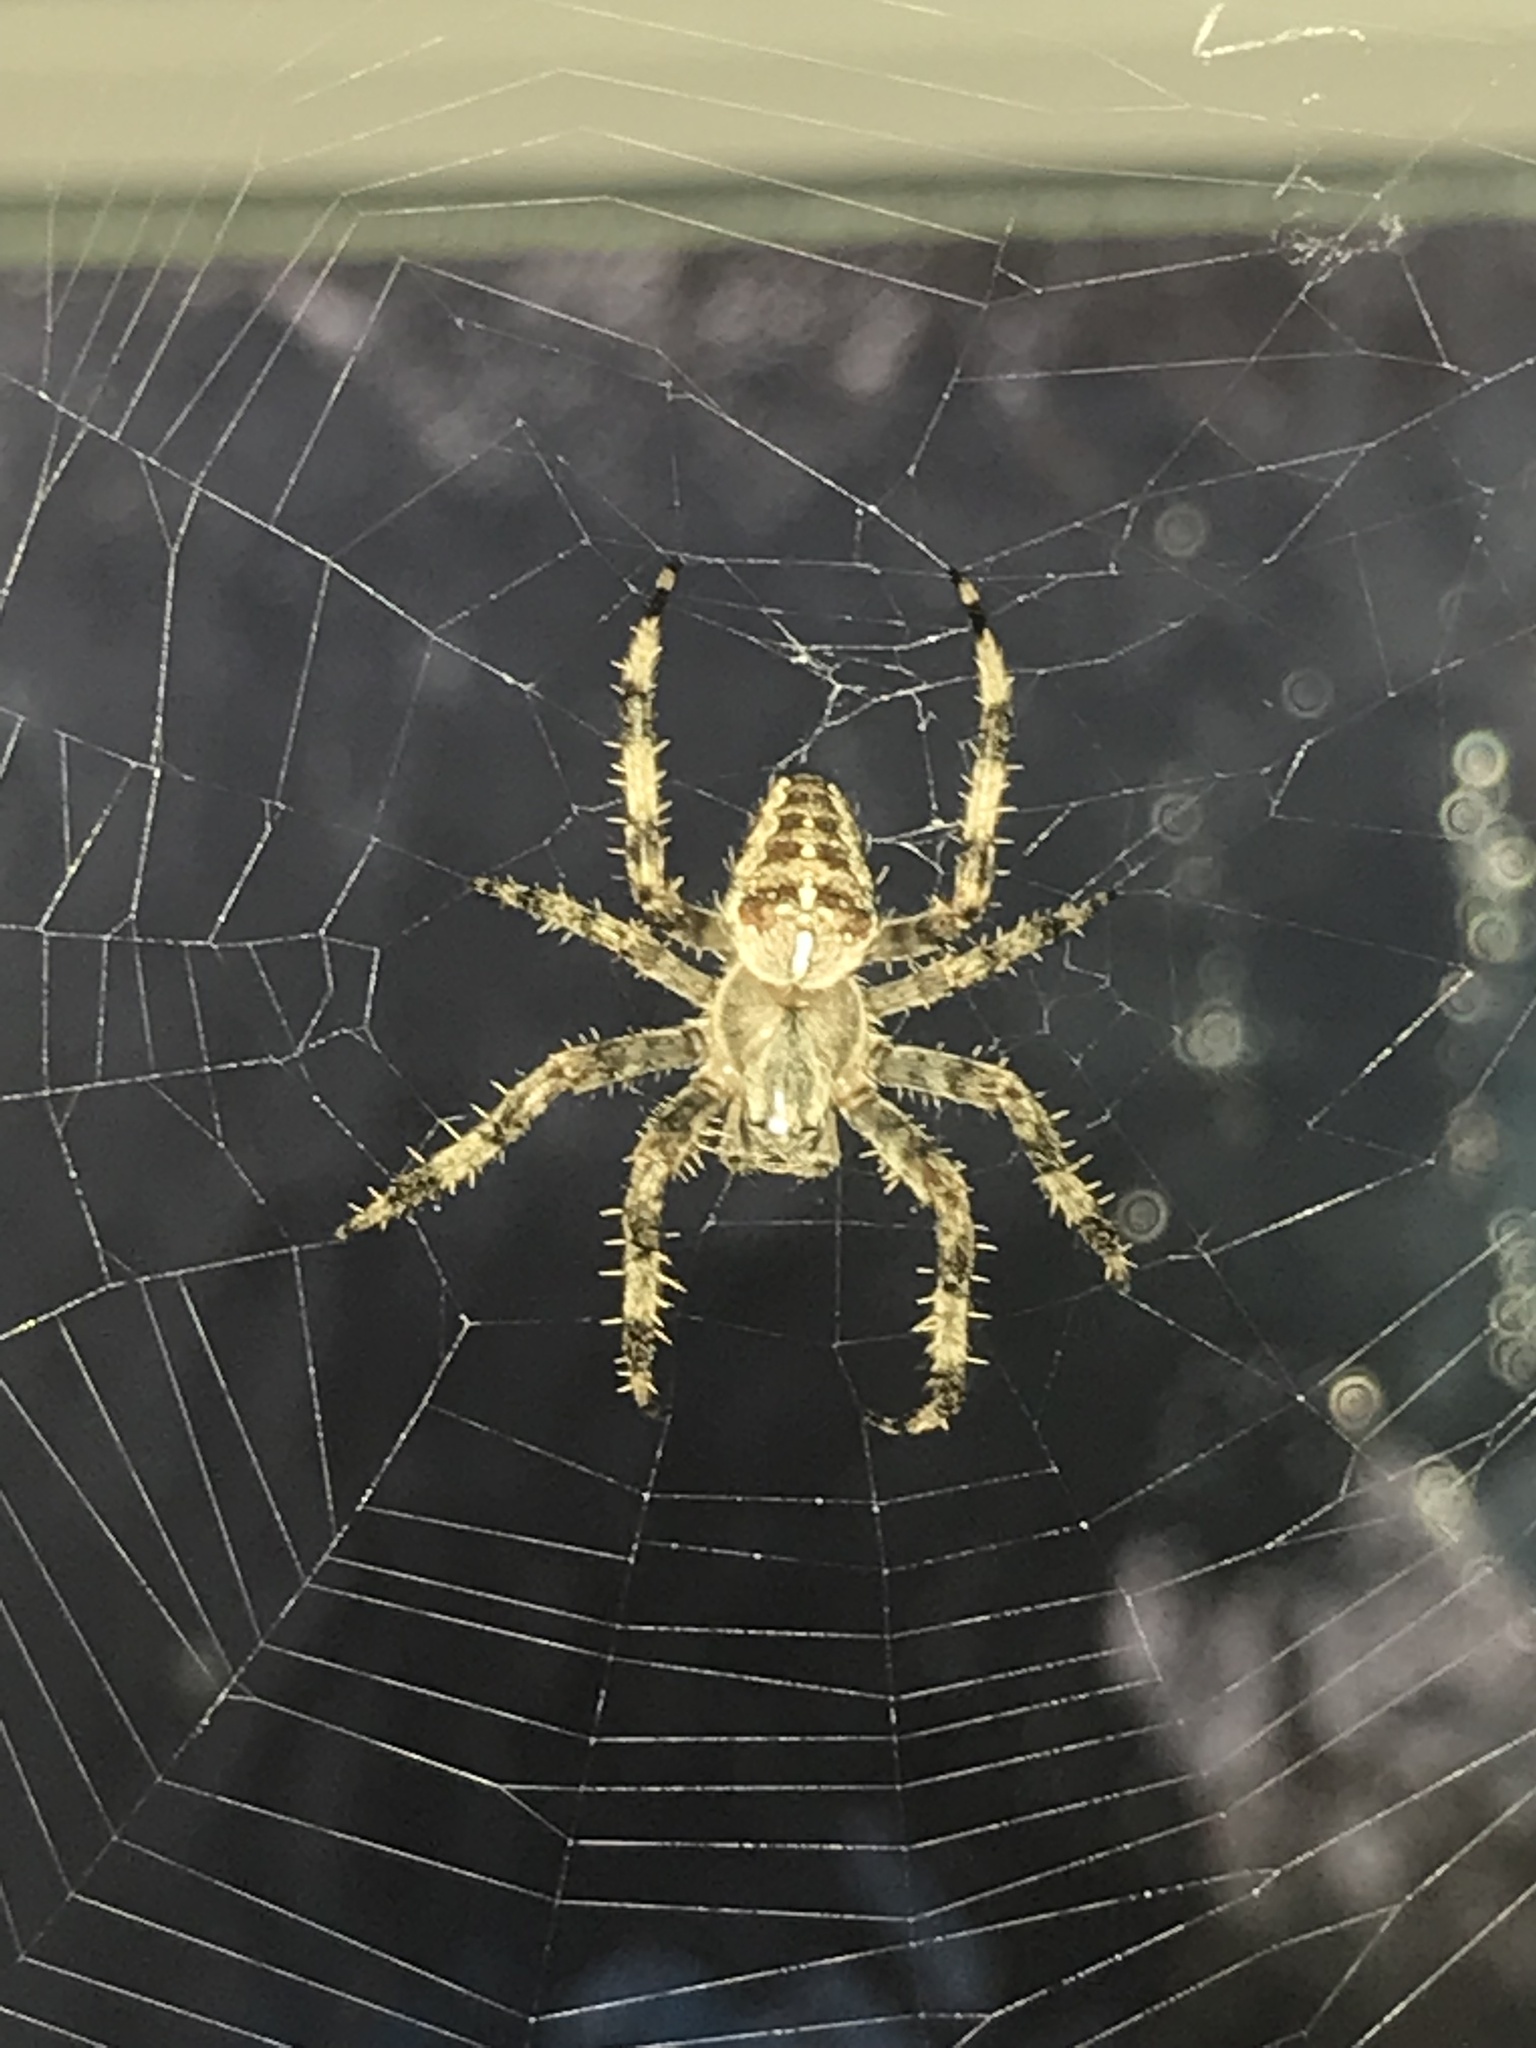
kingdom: Animalia
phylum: Arthropoda
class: Arachnida
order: Araneae
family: Araneidae
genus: Araneus
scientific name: Araneus diadematus
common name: Cross orbweaver
